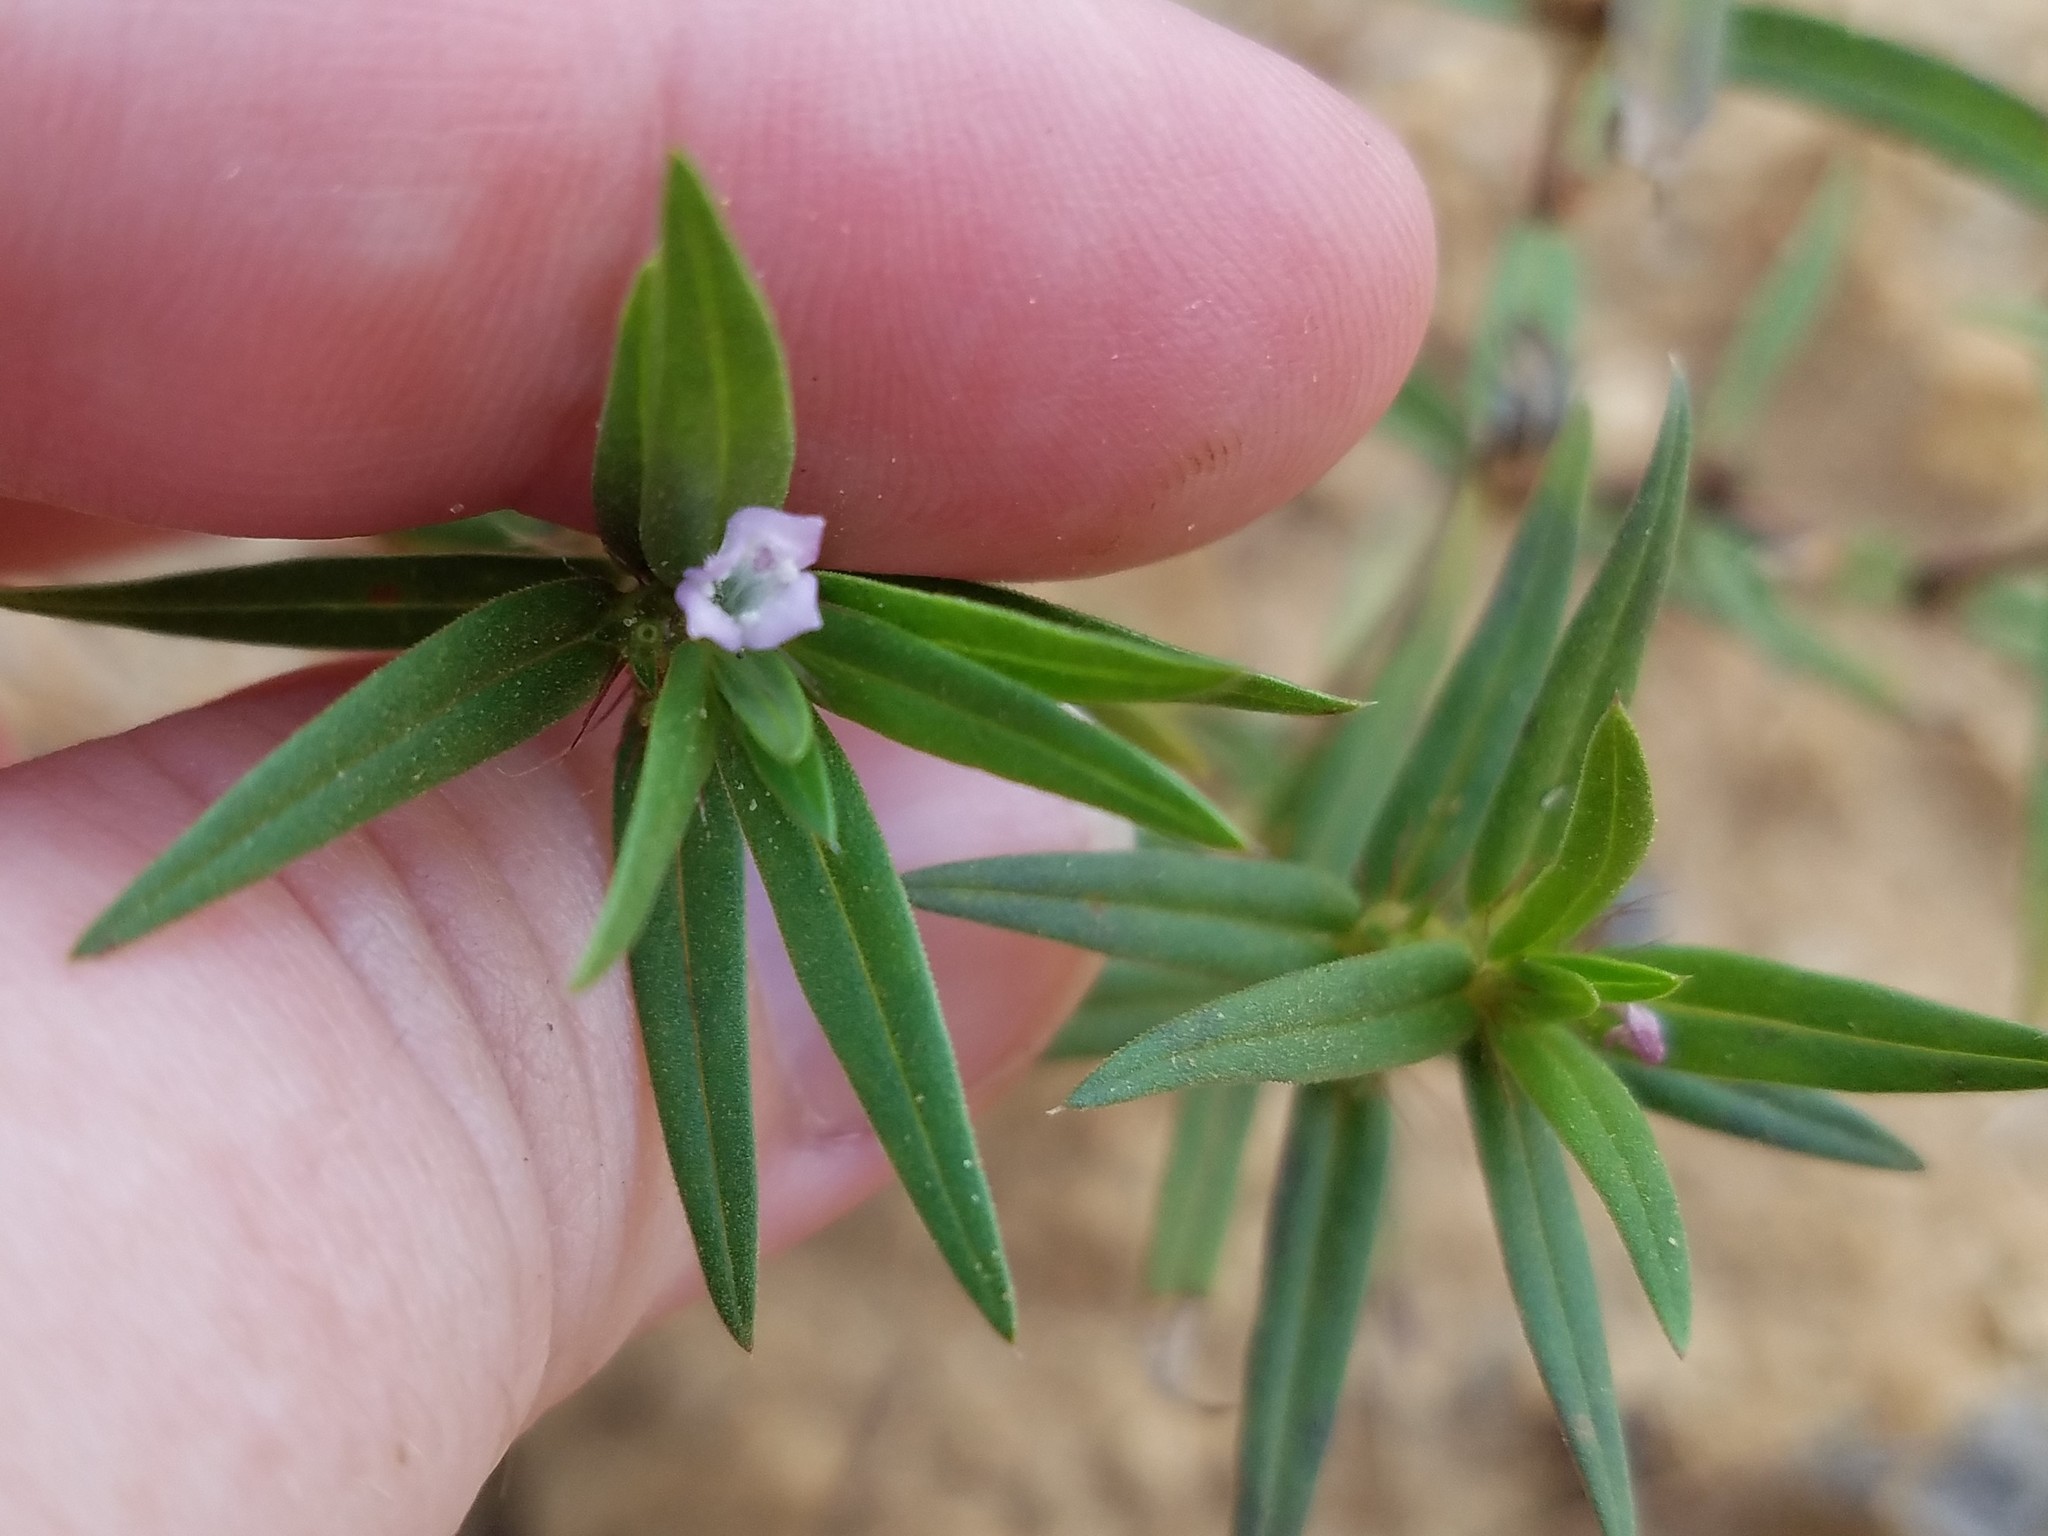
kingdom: Plantae
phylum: Tracheophyta
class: Magnoliopsida
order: Gentianales
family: Rubiaceae
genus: Hexasepalum
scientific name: Hexasepalum teres
